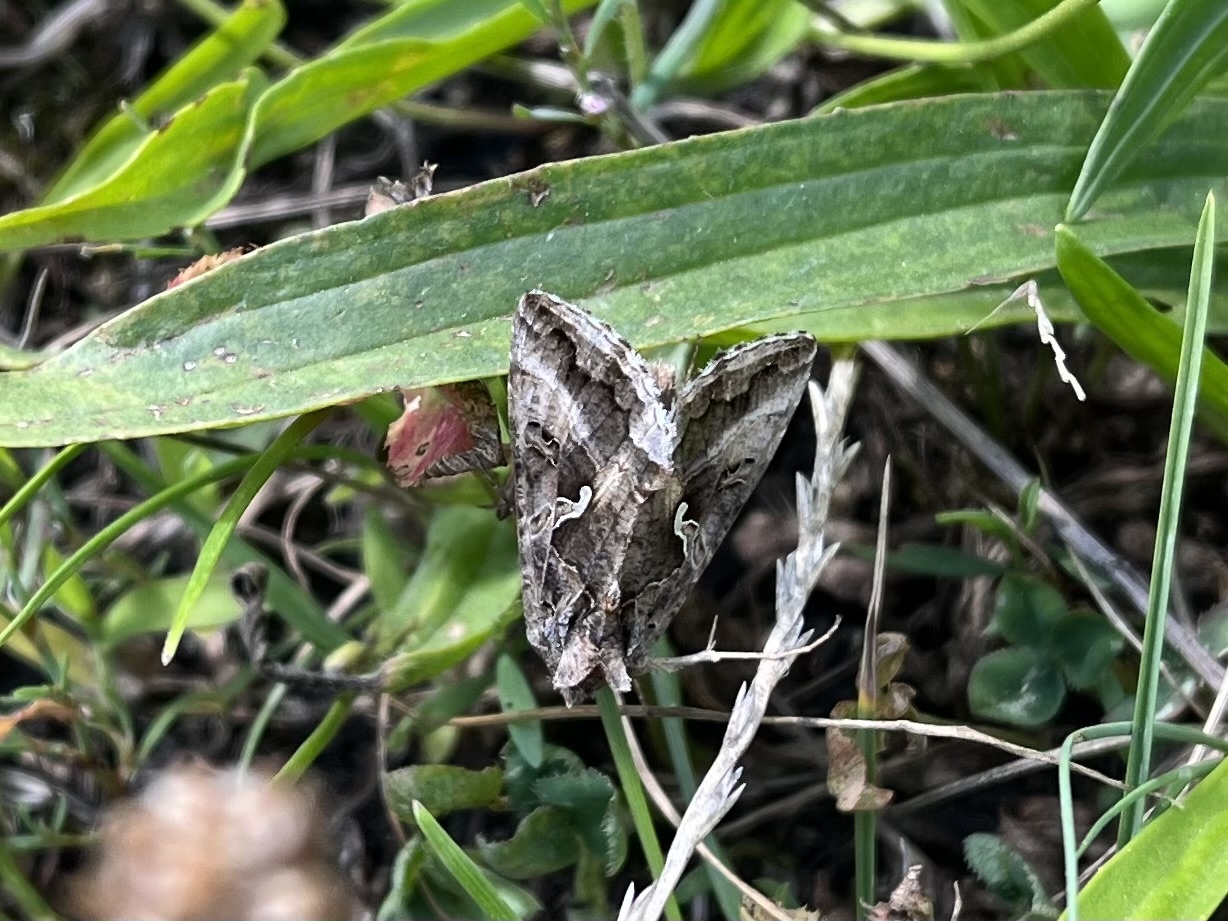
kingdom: Animalia
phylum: Arthropoda
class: Insecta
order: Lepidoptera
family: Noctuidae
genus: Autographa
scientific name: Autographa gamma
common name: Silver y
